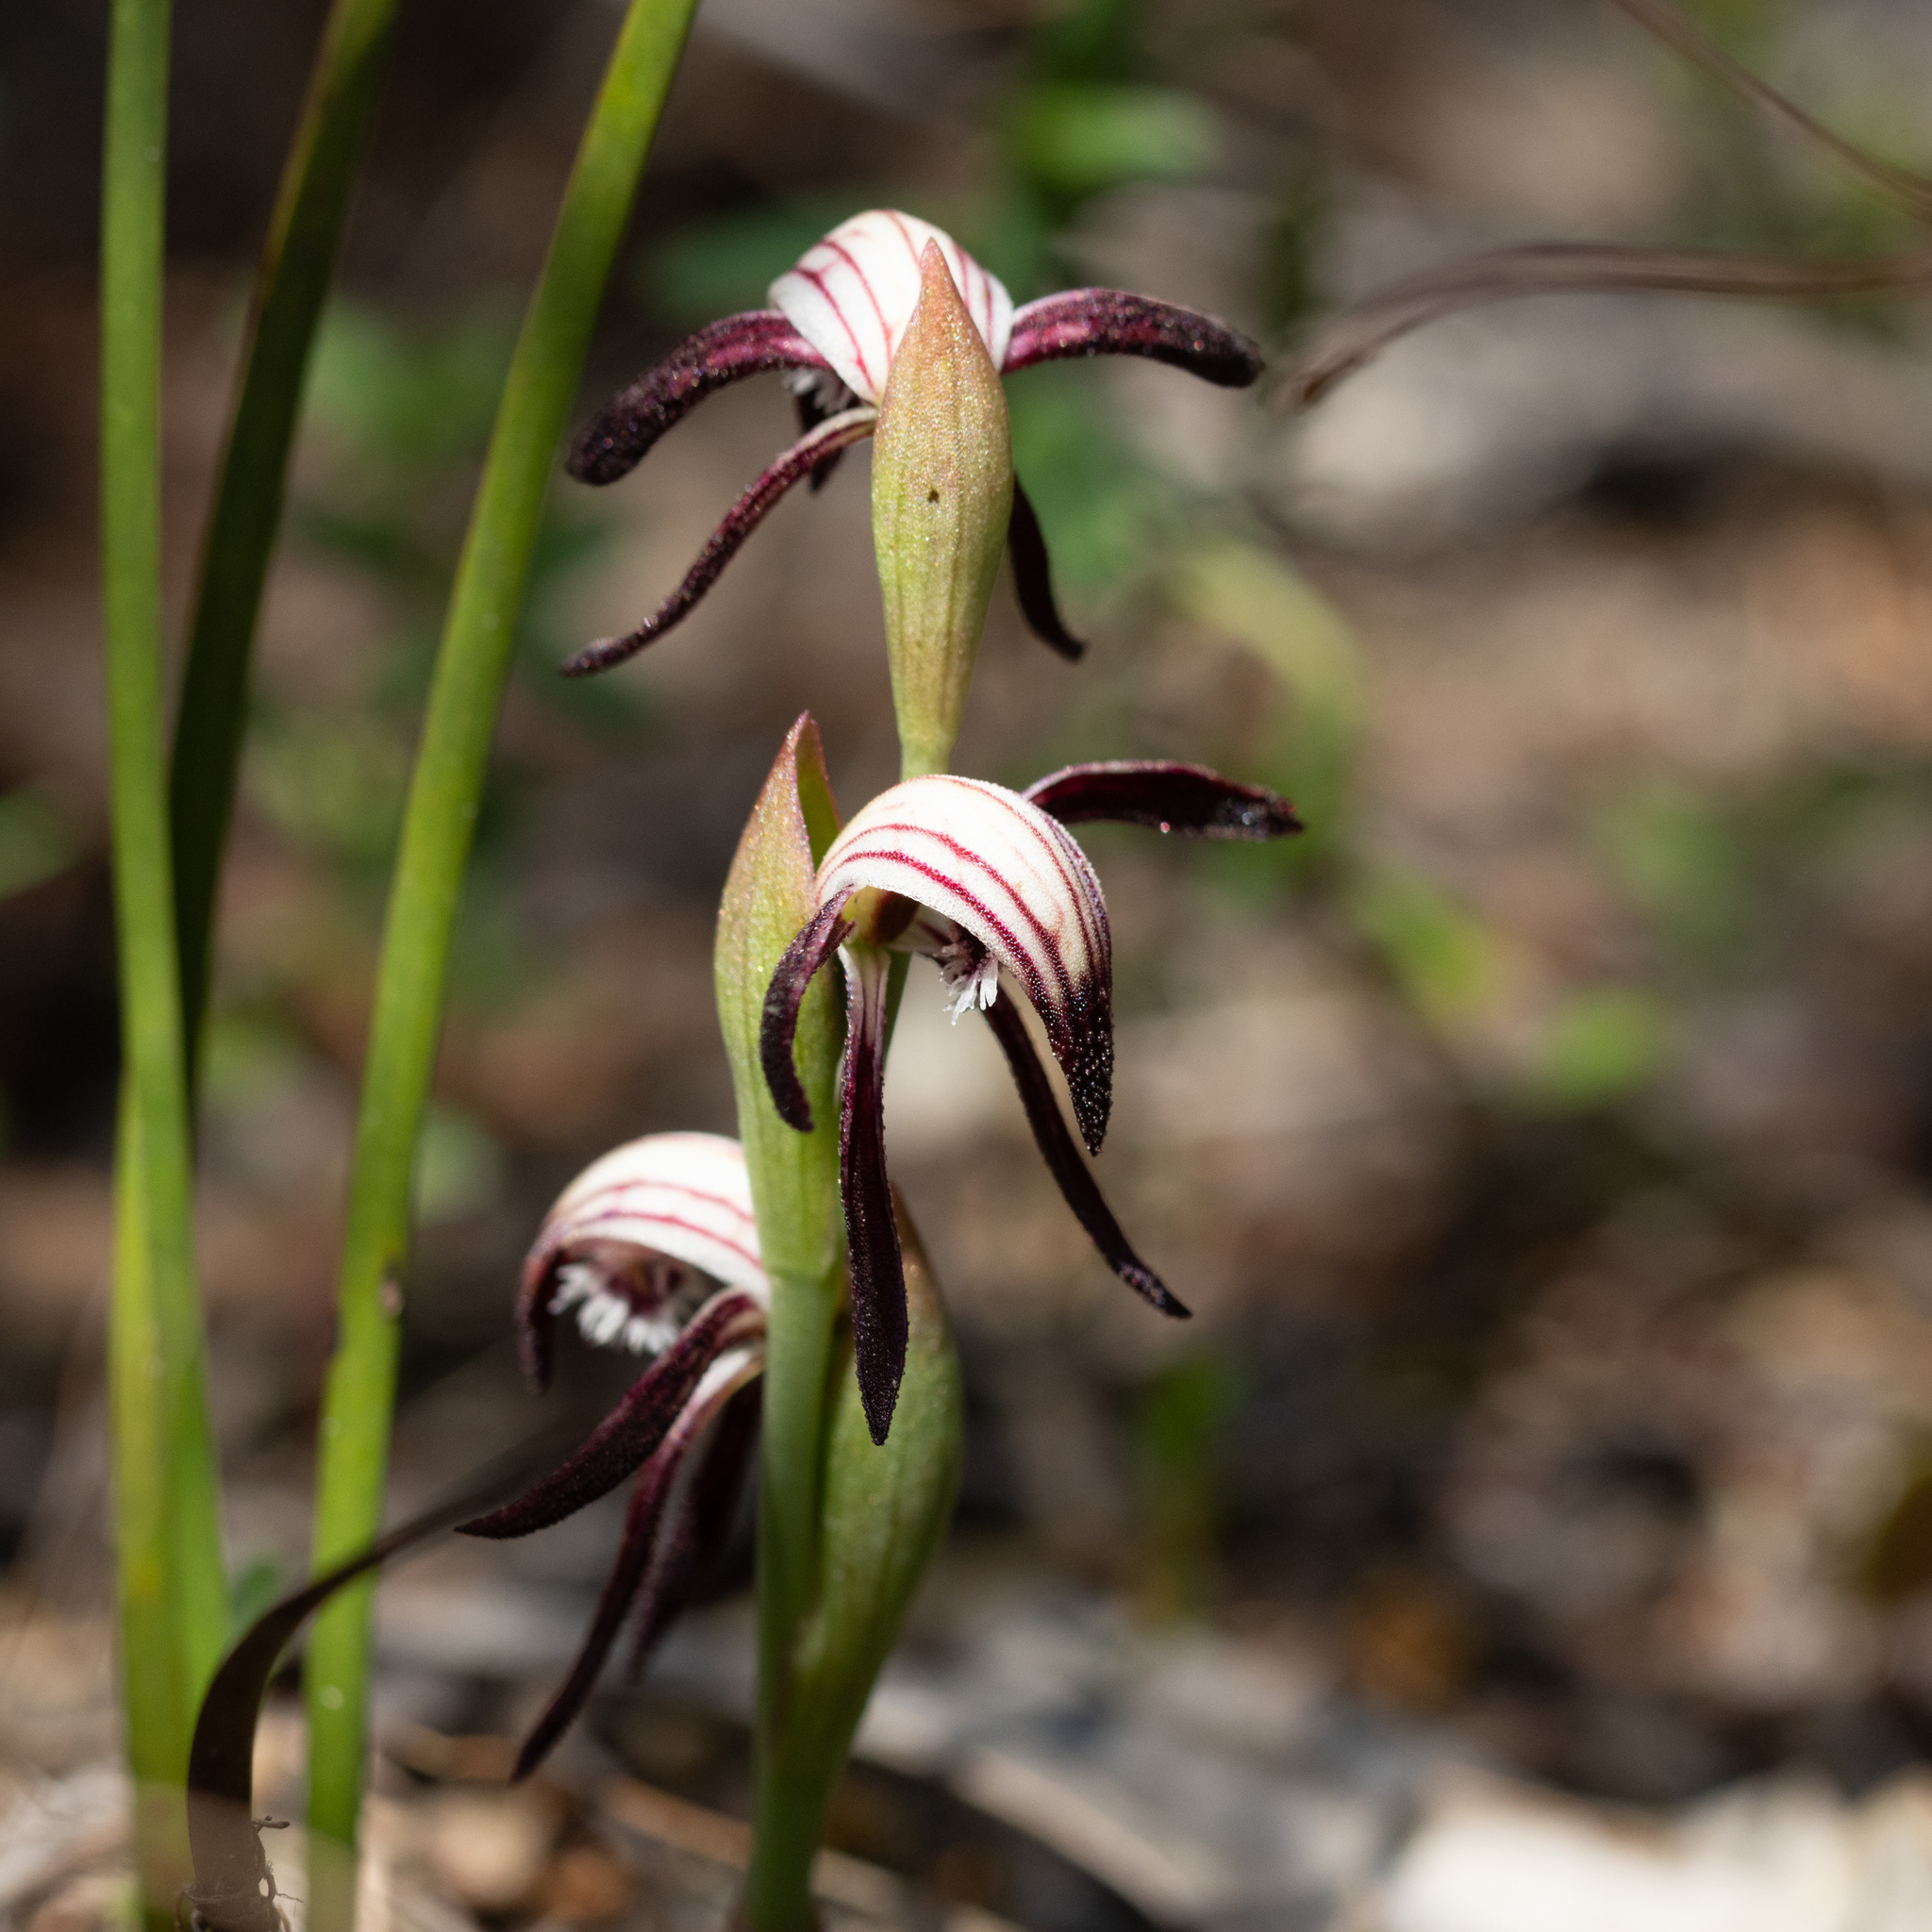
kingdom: Plantae
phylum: Tracheophyta
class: Liliopsida
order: Asparagales
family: Orchidaceae
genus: Pyrorchis
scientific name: Pyrorchis nigricans
